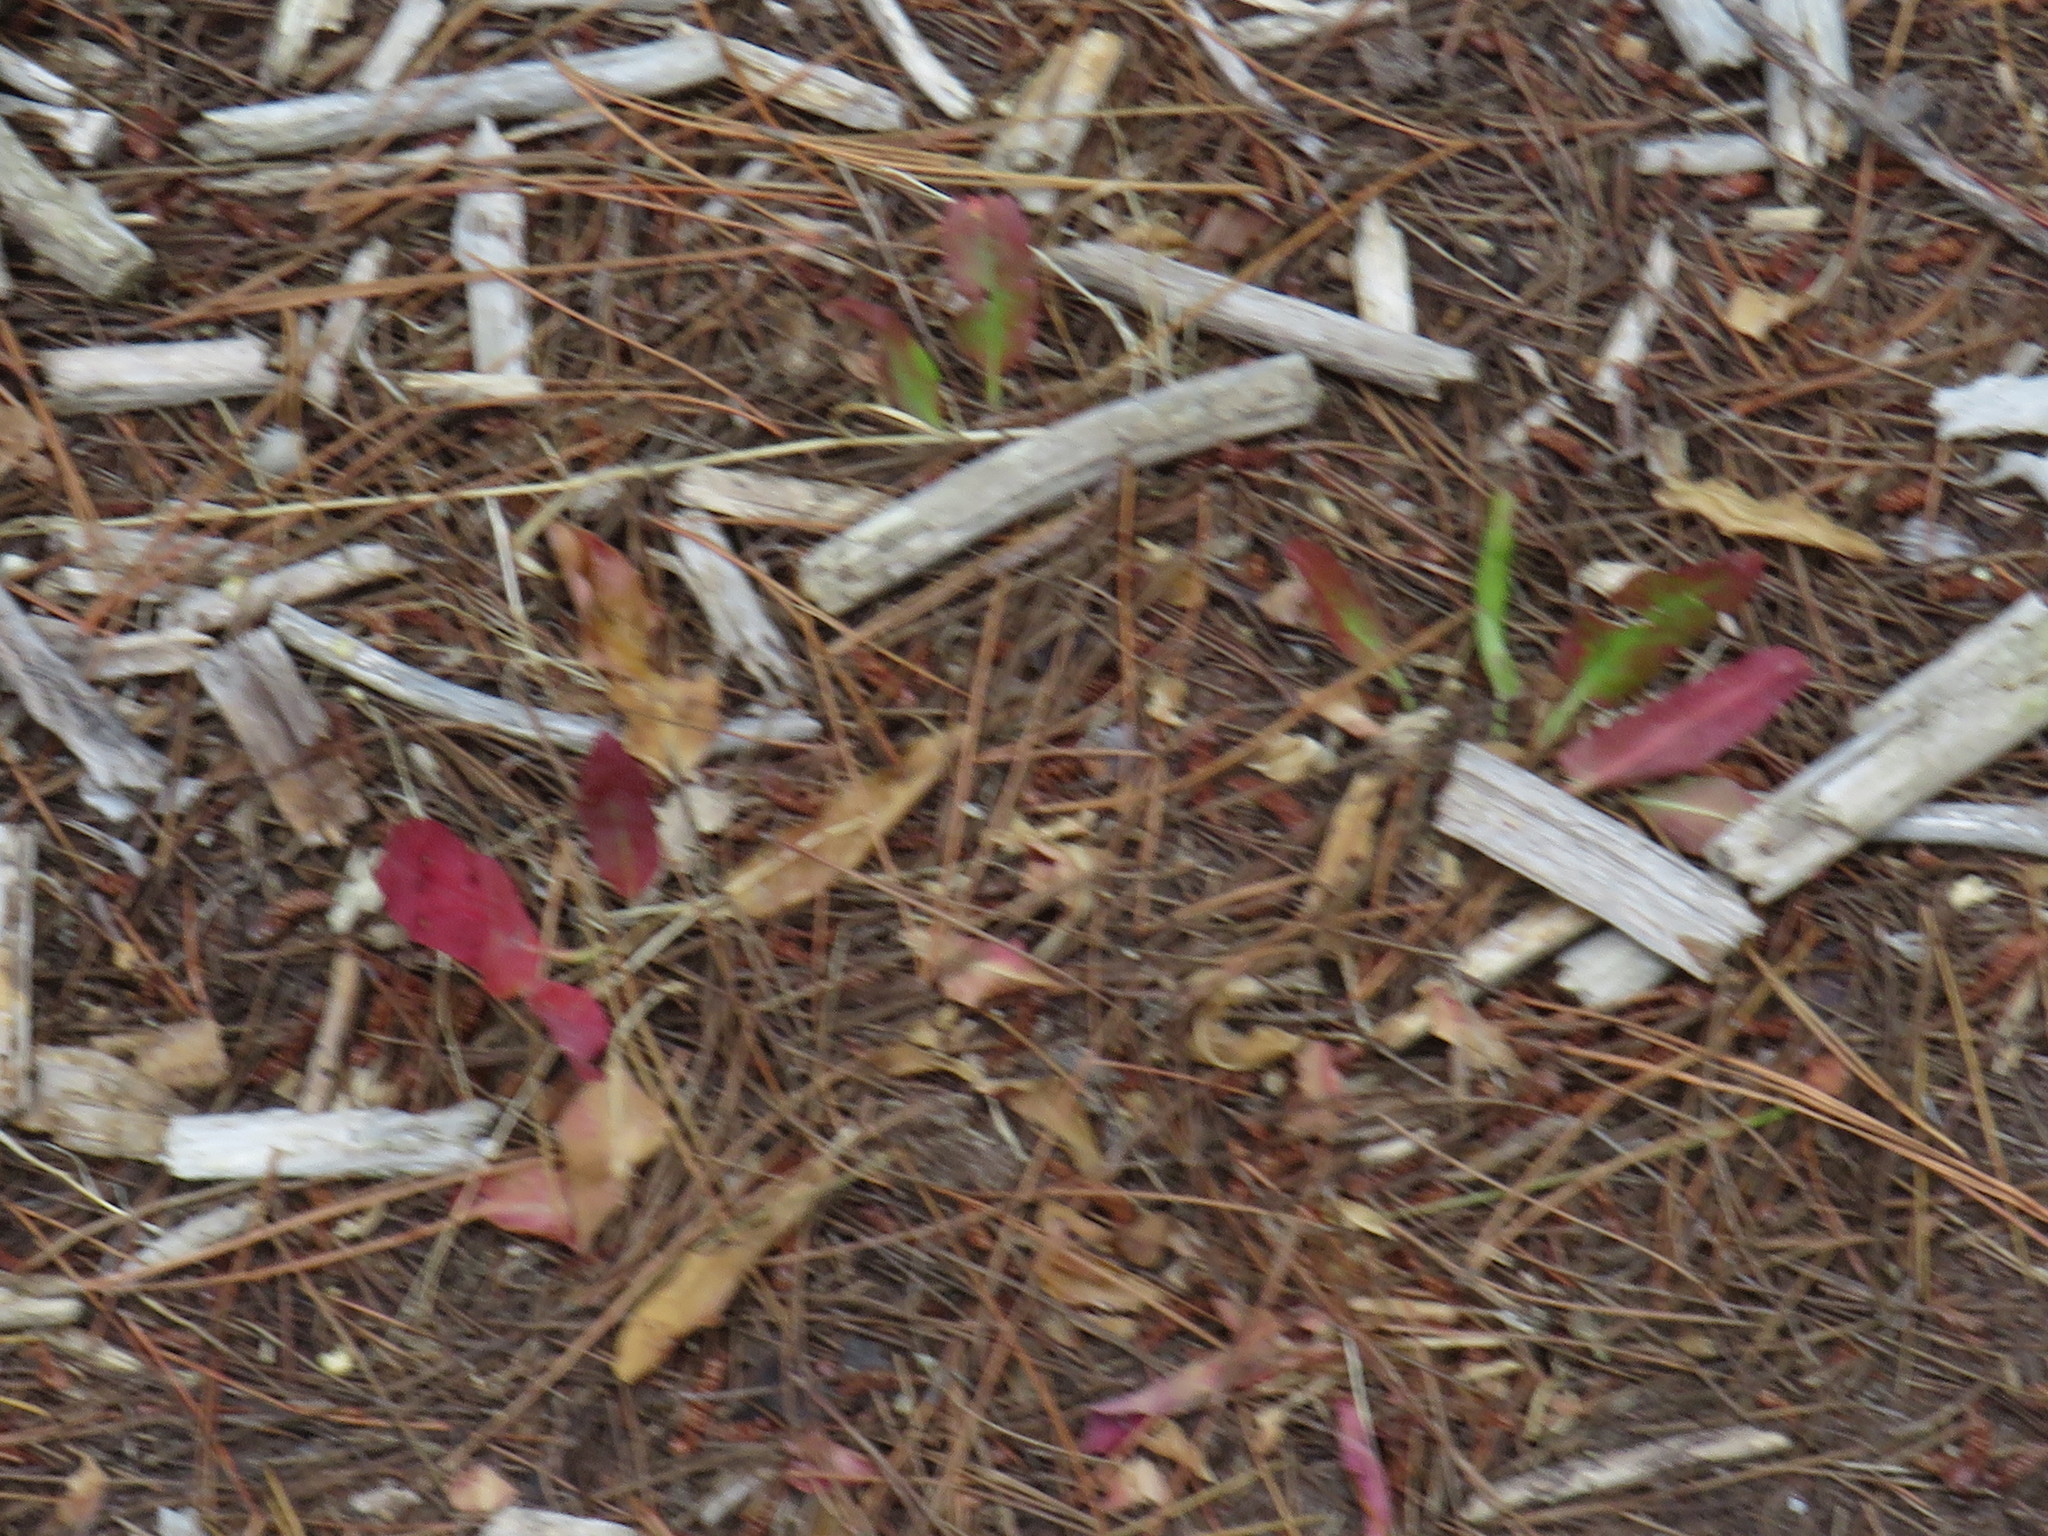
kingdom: Plantae
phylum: Tracheophyta
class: Magnoliopsida
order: Malpighiales
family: Euphorbiaceae
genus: Euphorbia
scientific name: Euphorbia tuberosa
